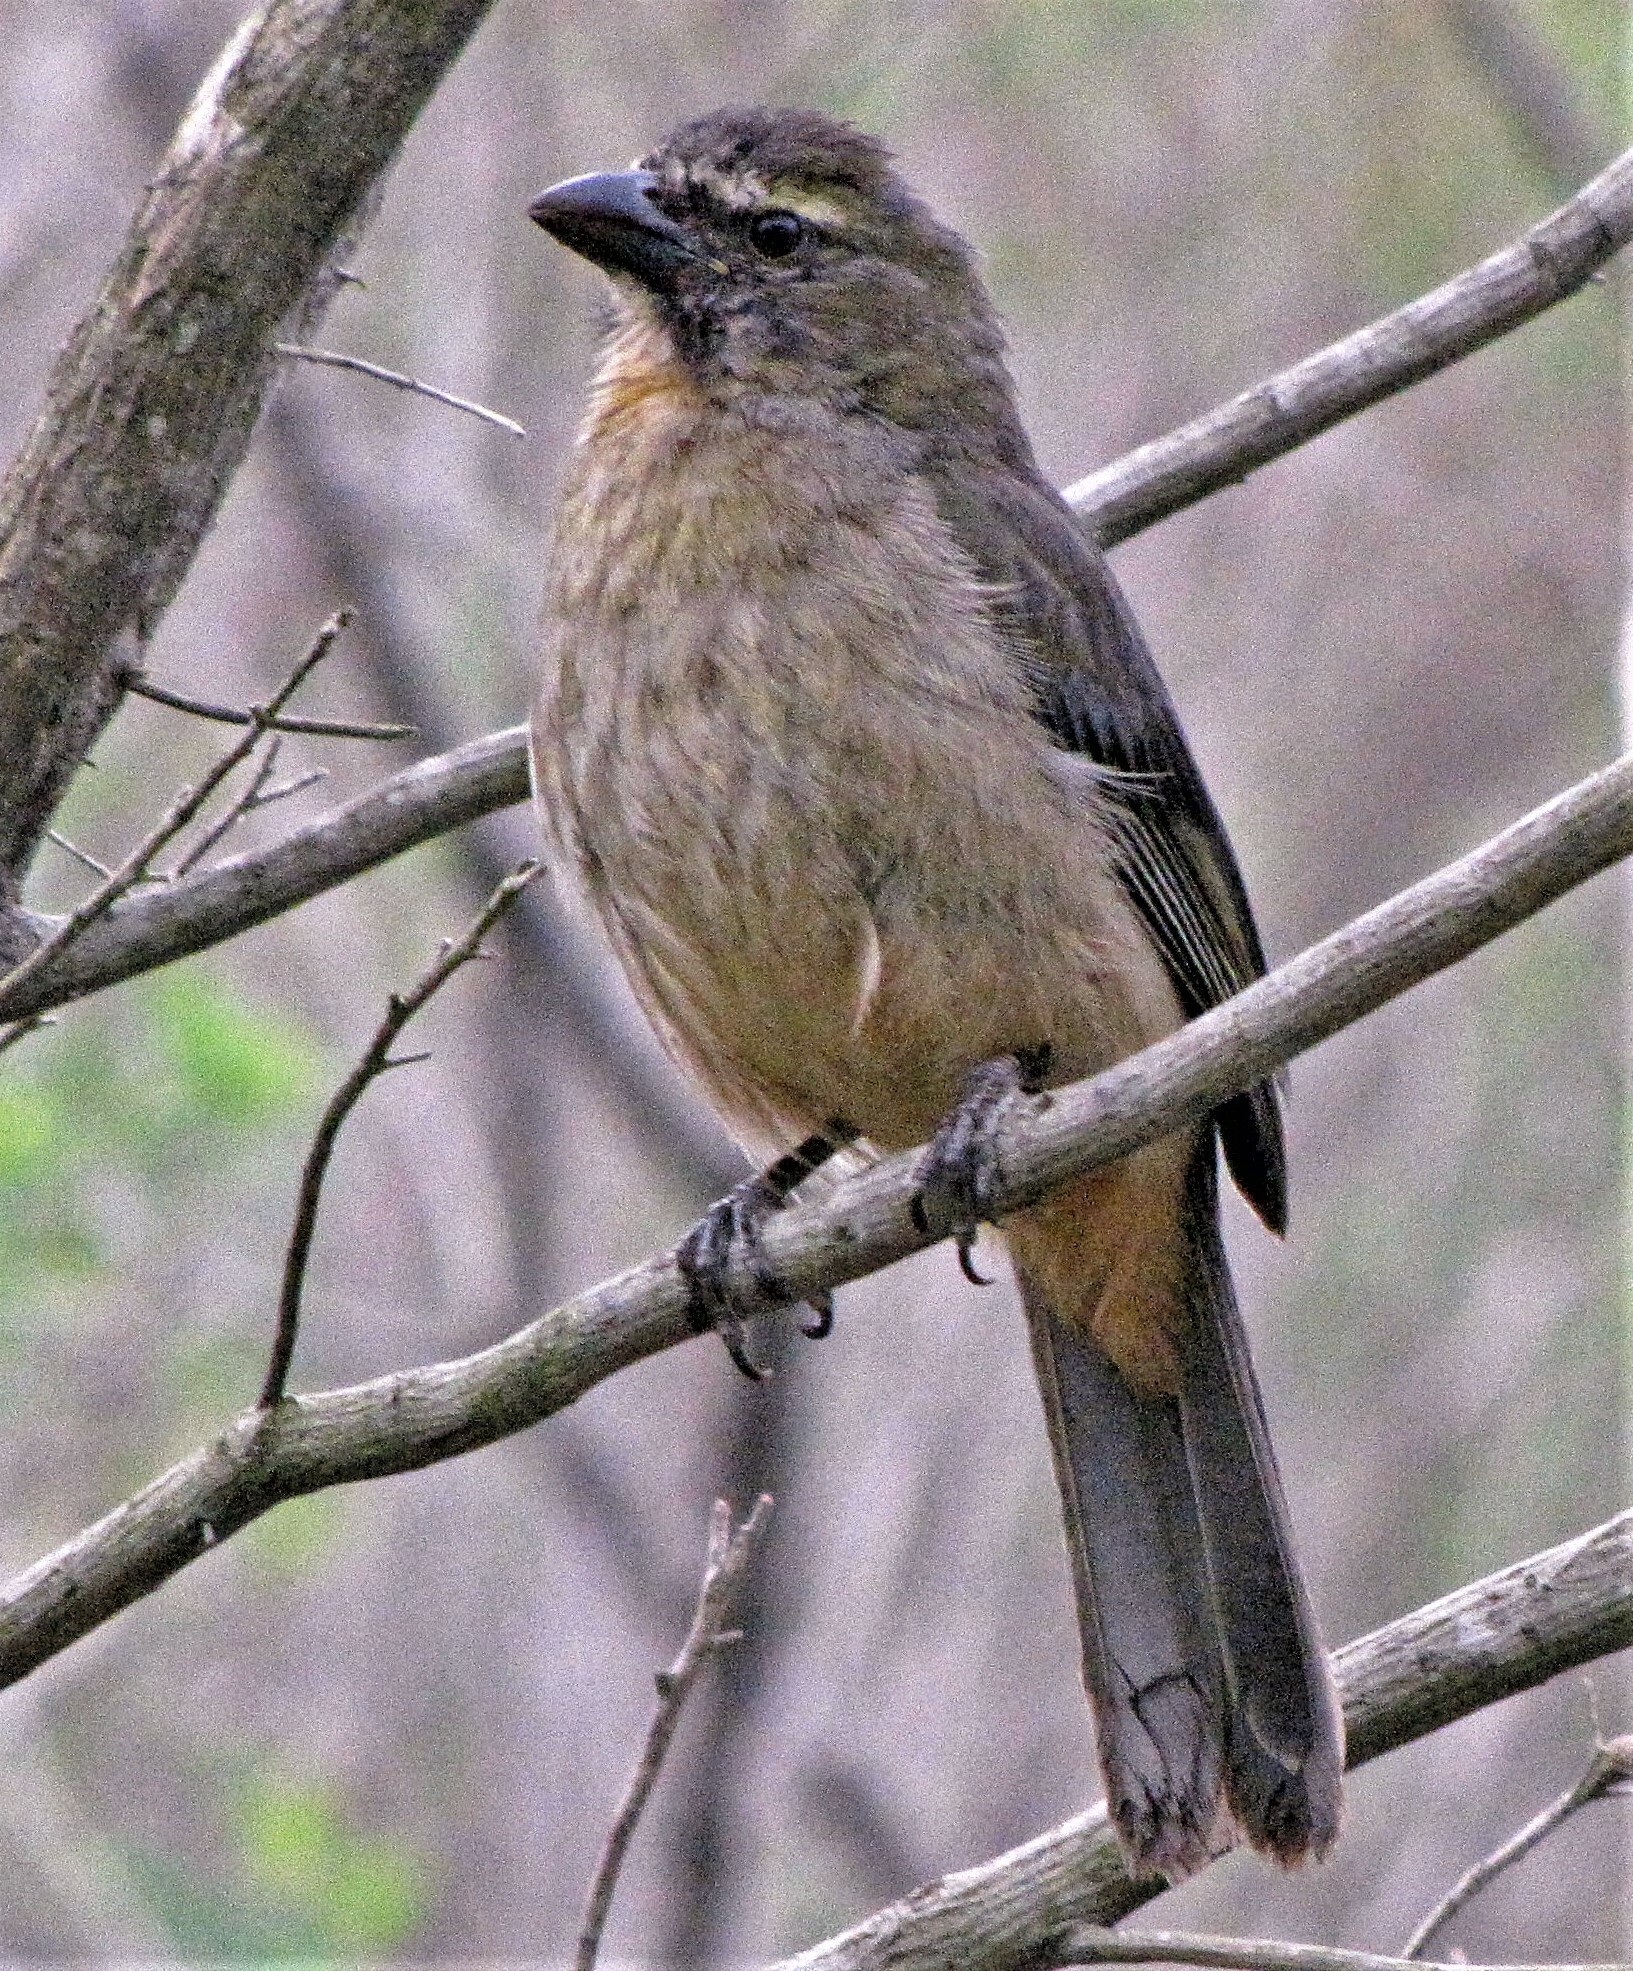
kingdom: Animalia
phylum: Chordata
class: Aves
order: Passeriformes
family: Thraupidae
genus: Saltator
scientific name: Saltator coerulescens
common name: Grayish saltator
